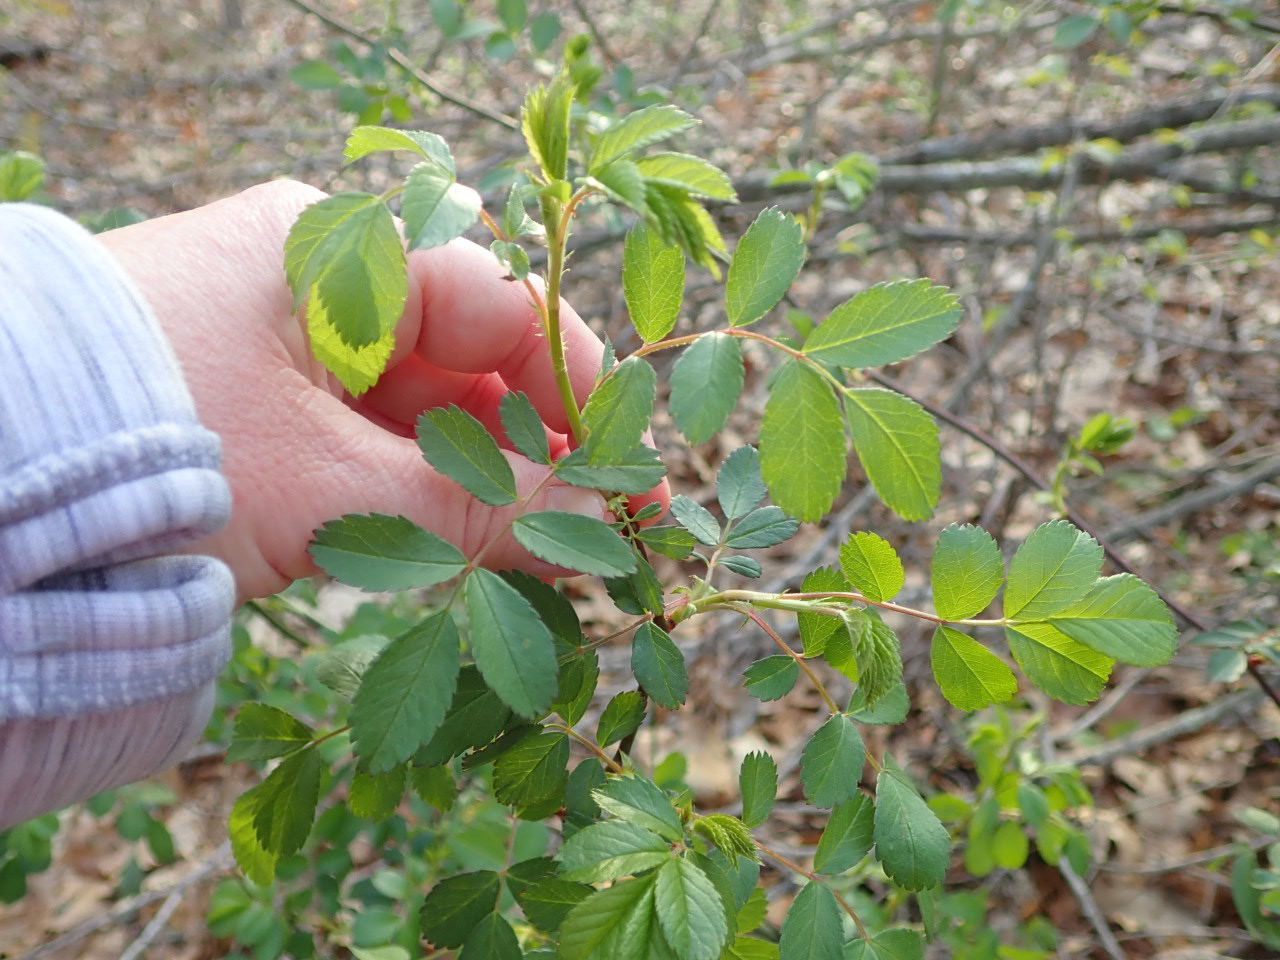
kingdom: Plantae
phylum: Tracheophyta
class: Magnoliopsida
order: Rosales
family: Rosaceae
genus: Rosa
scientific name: Rosa multiflora
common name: Multiflora rose
